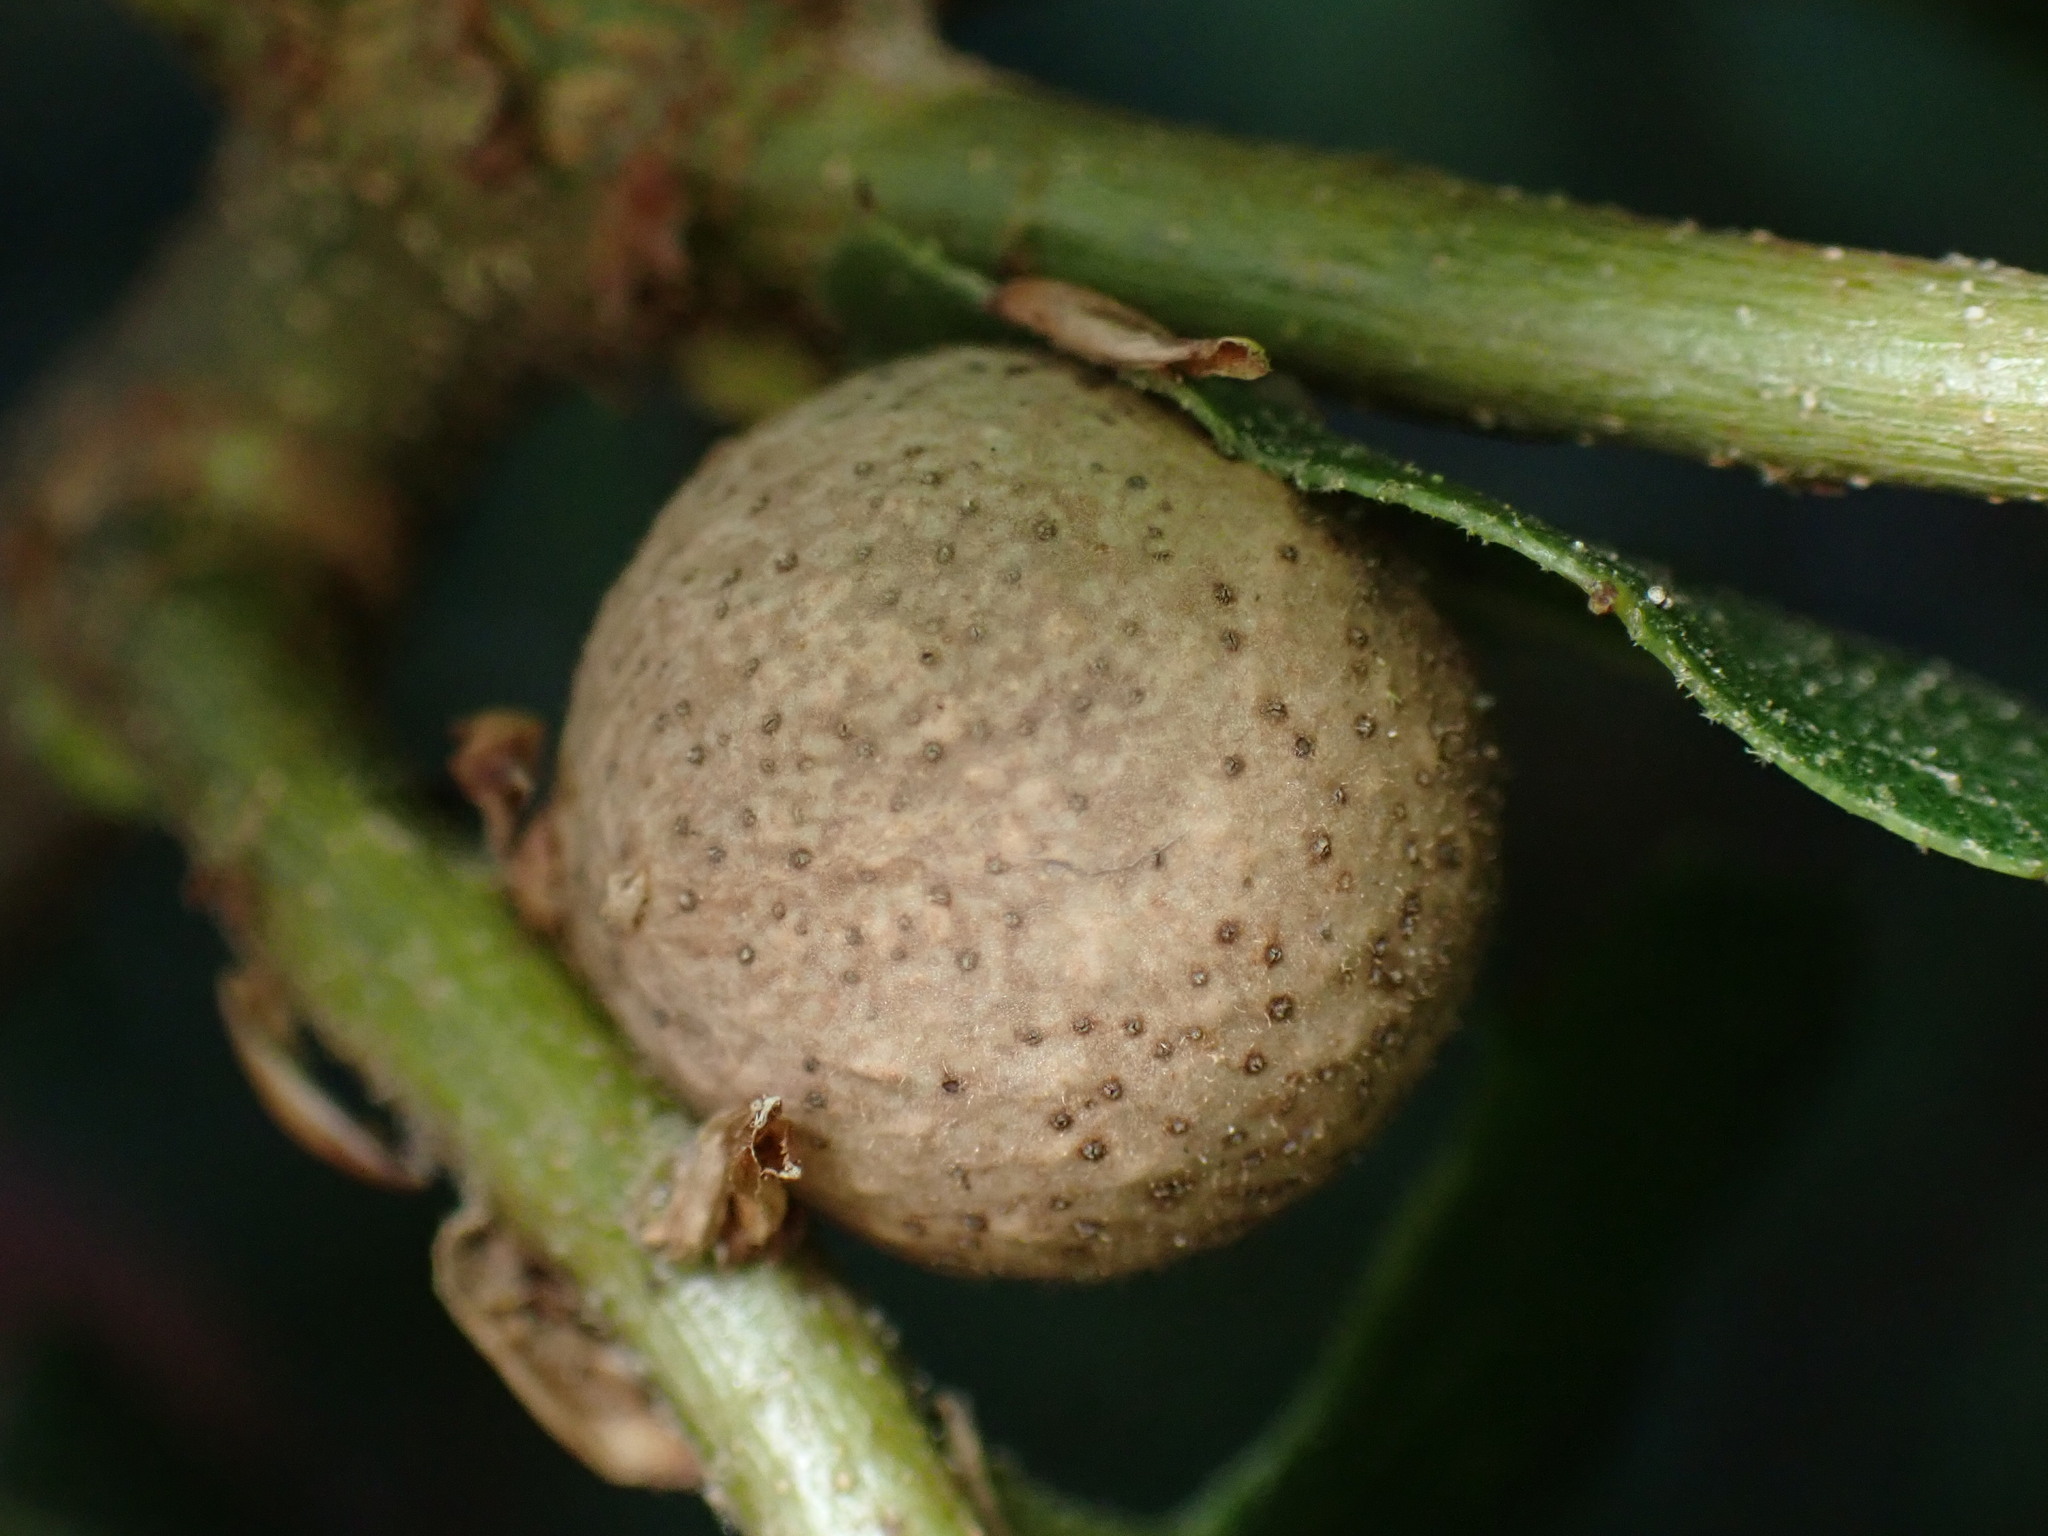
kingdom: Animalia
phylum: Arthropoda
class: Insecta
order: Hymenoptera
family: Cynipidae
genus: Callirhytis
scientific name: Callirhytis
